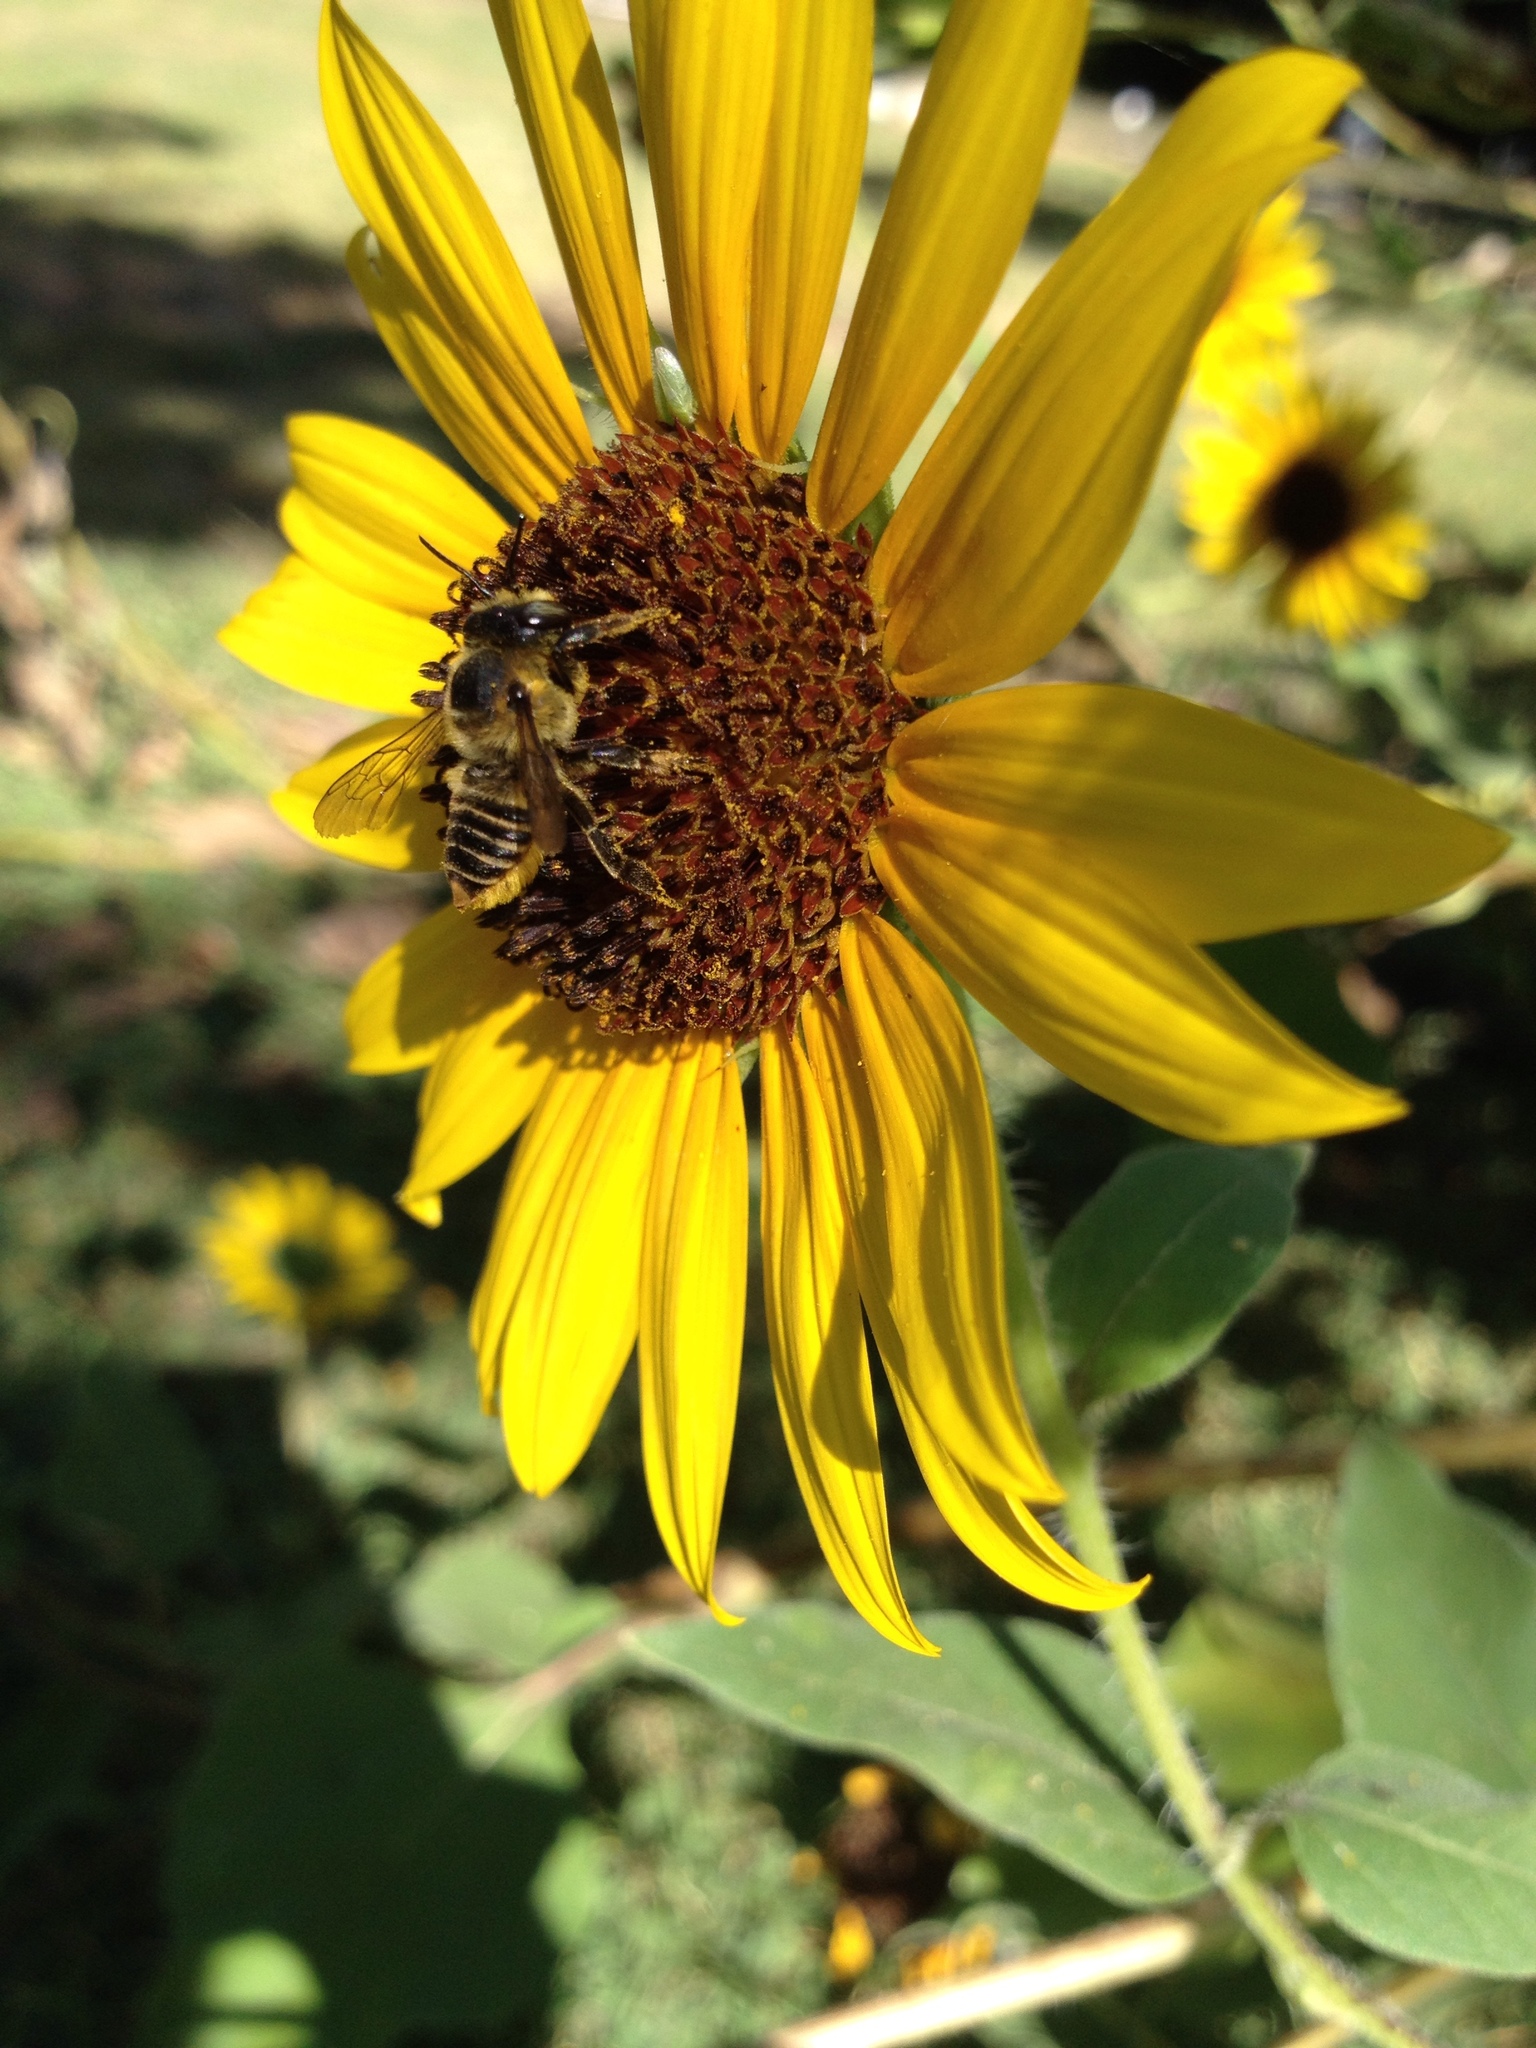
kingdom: Animalia
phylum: Arthropoda
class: Insecta
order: Hymenoptera
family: Megachilidae
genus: Megachile
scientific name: Megachile parallela
